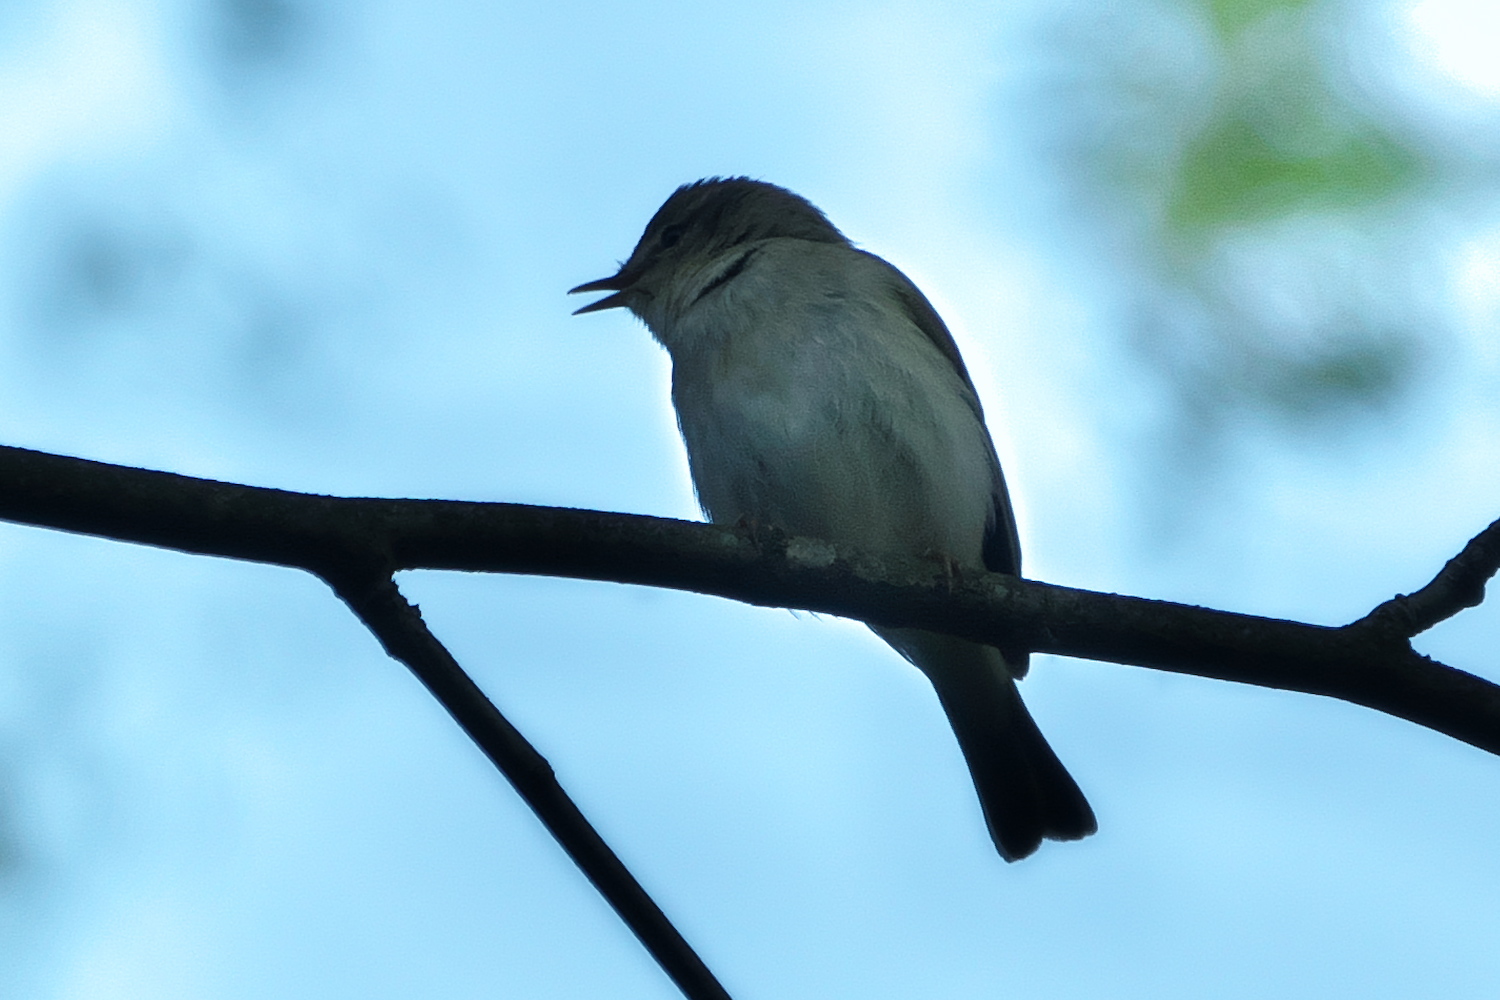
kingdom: Animalia
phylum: Chordata
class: Aves
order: Passeriformes
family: Phylloscopidae
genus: Phylloscopus
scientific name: Phylloscopus trochilus
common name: Willow warbler
